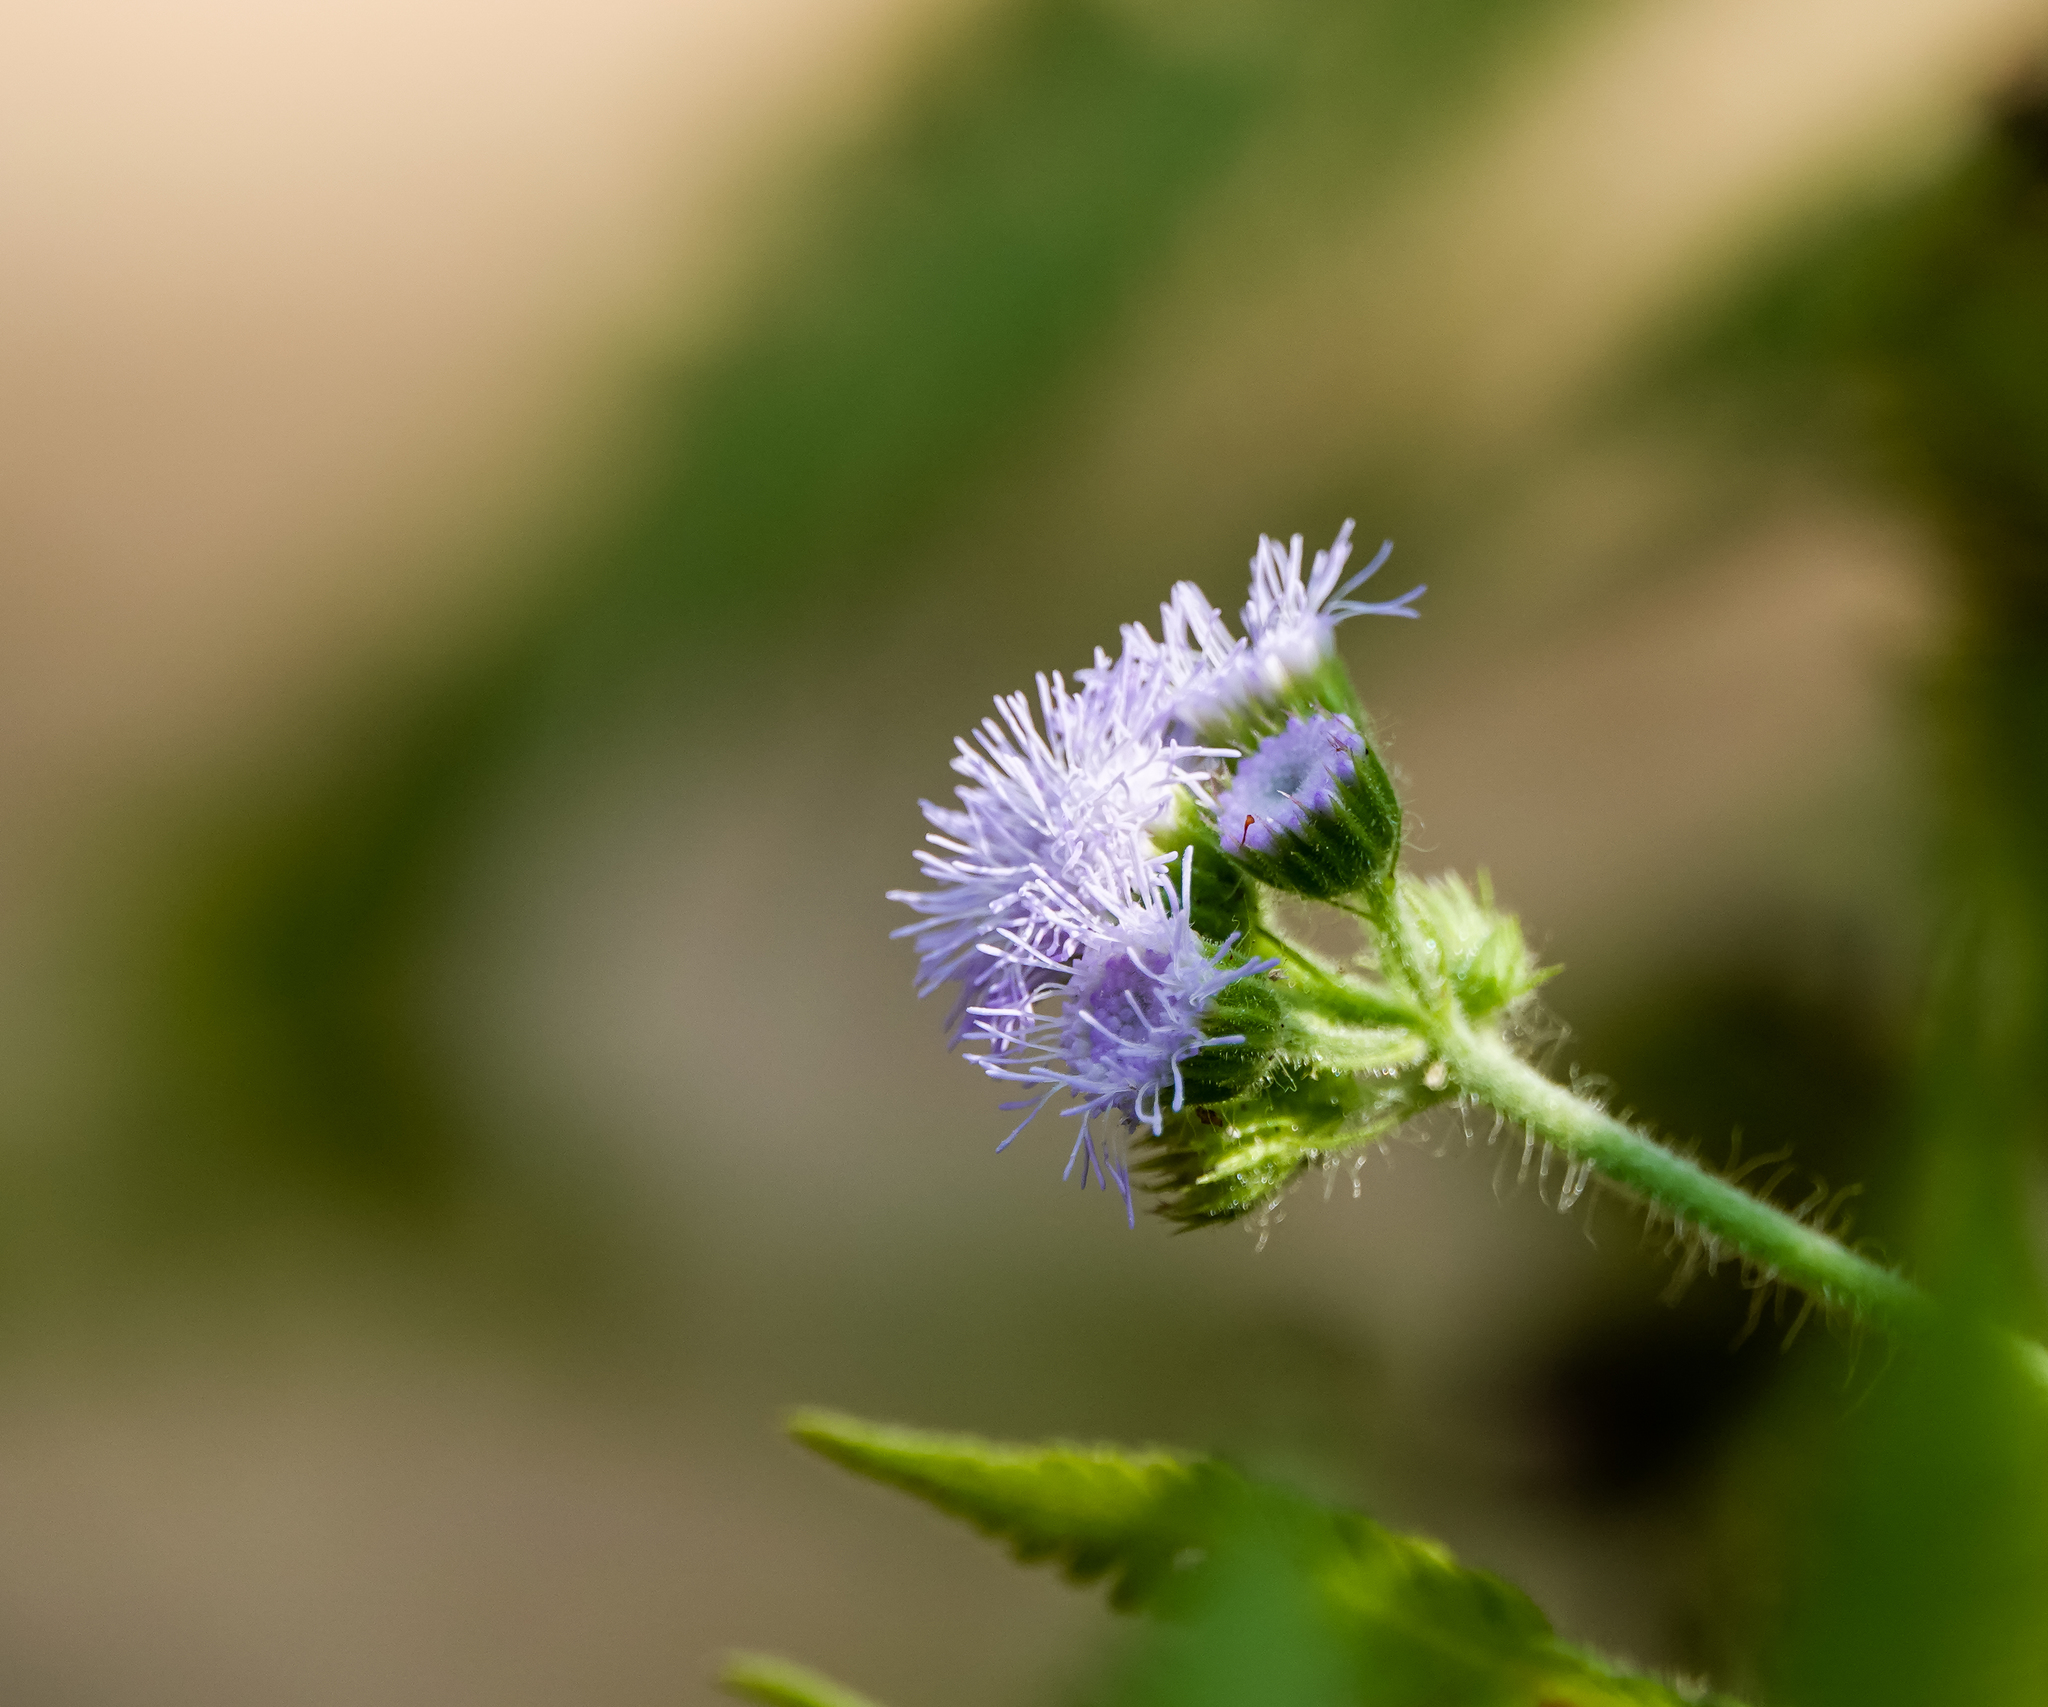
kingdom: Plantae
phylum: Tracheophyta
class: Magnoliopsida
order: Asterales
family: Asteraceae
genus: Ageratum
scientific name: Ageratum houstonianum
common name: Bluemink
